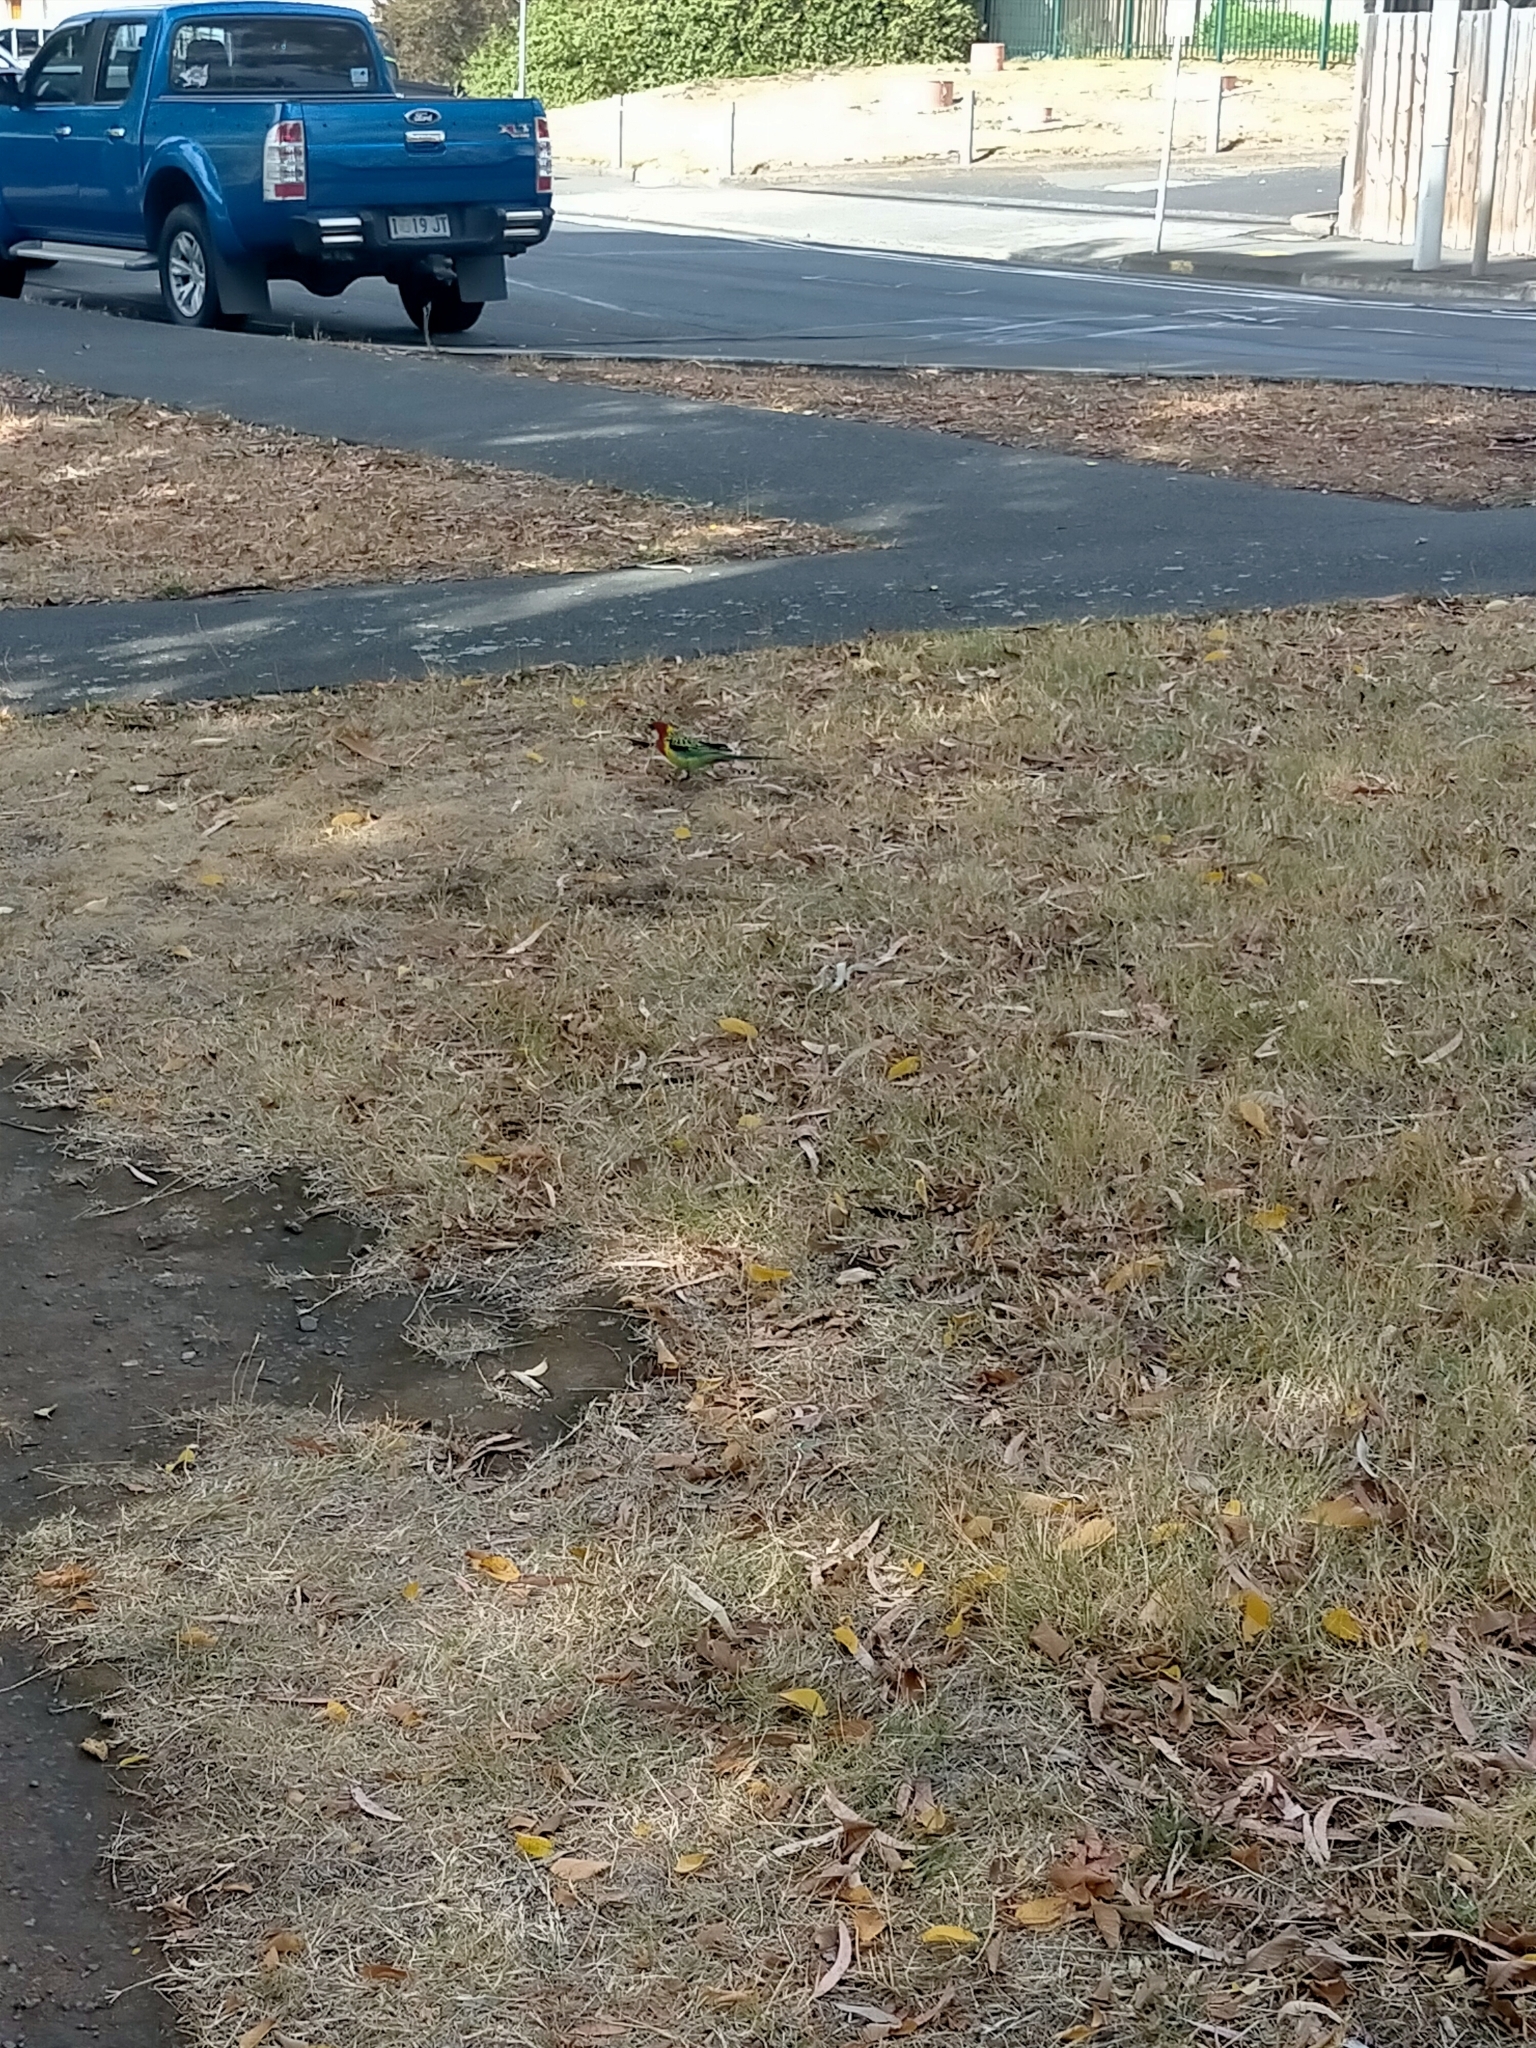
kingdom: Animalia
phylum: Chordata
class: Aves
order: Psittaciformes
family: Psittacidae
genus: Platycercus
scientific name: Platycercus eximius
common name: Eastern rosella
